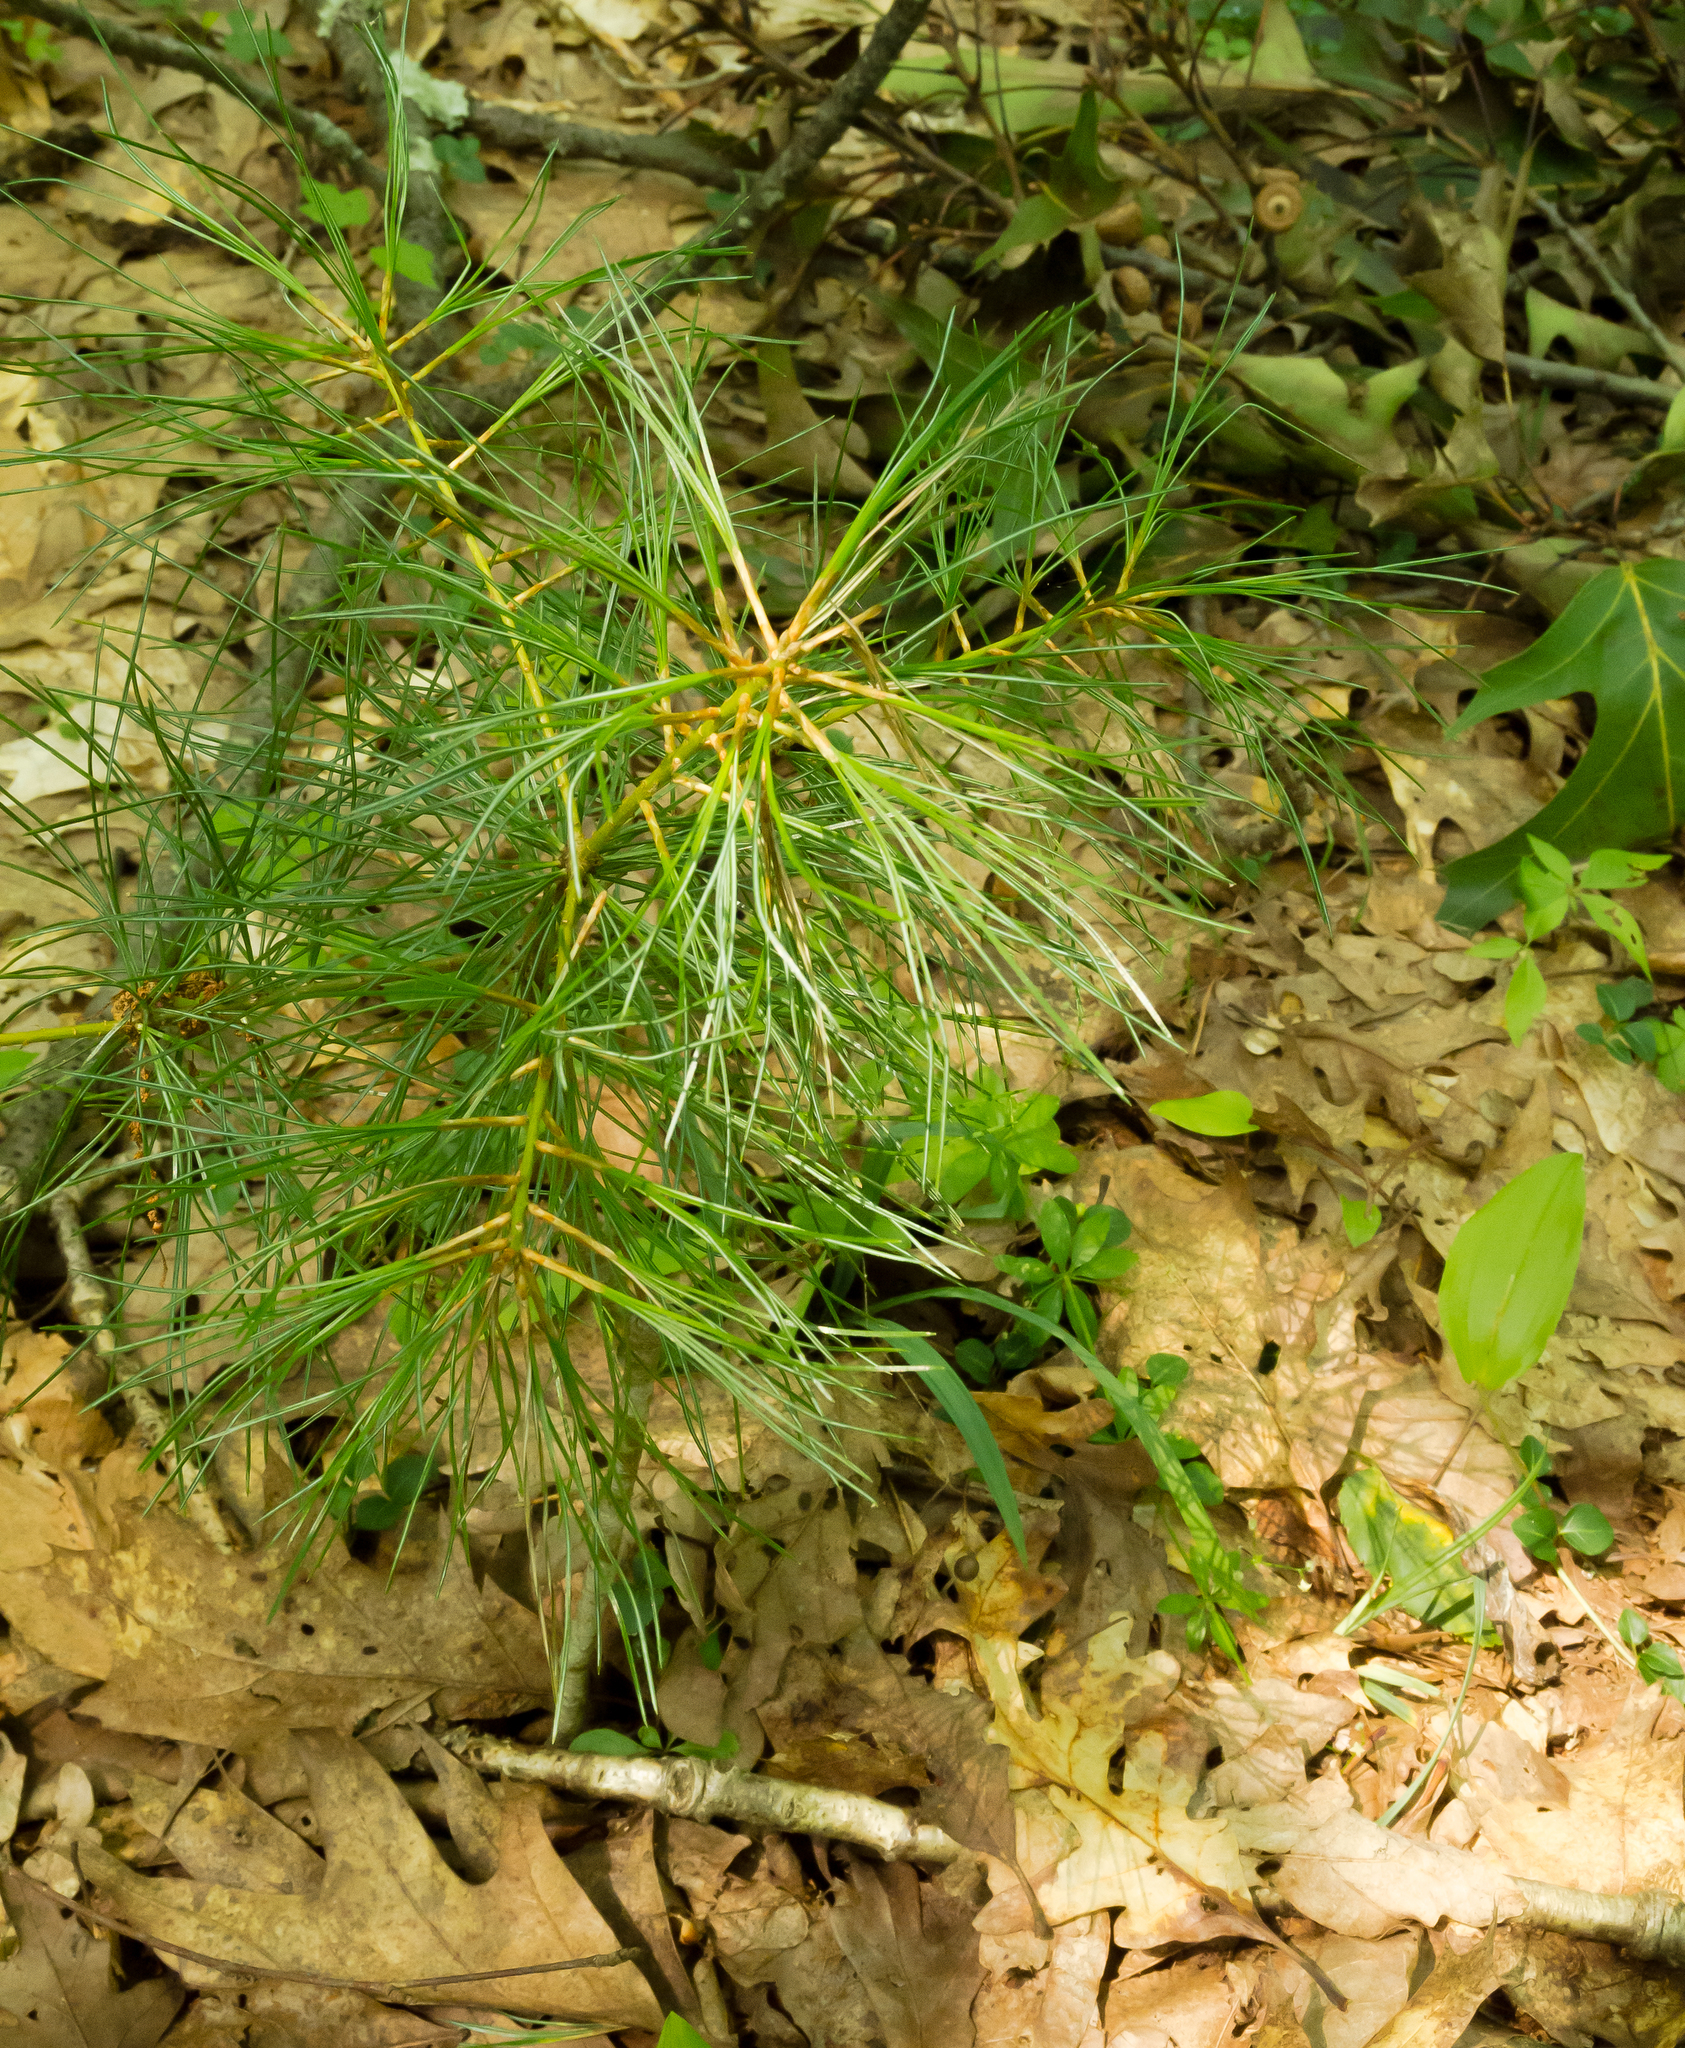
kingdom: Plantae
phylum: Tracheophyta
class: Pinopsida
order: Pinales
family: Pinaceae
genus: Pinus
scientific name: Pinus strobus
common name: Weymouth pine
